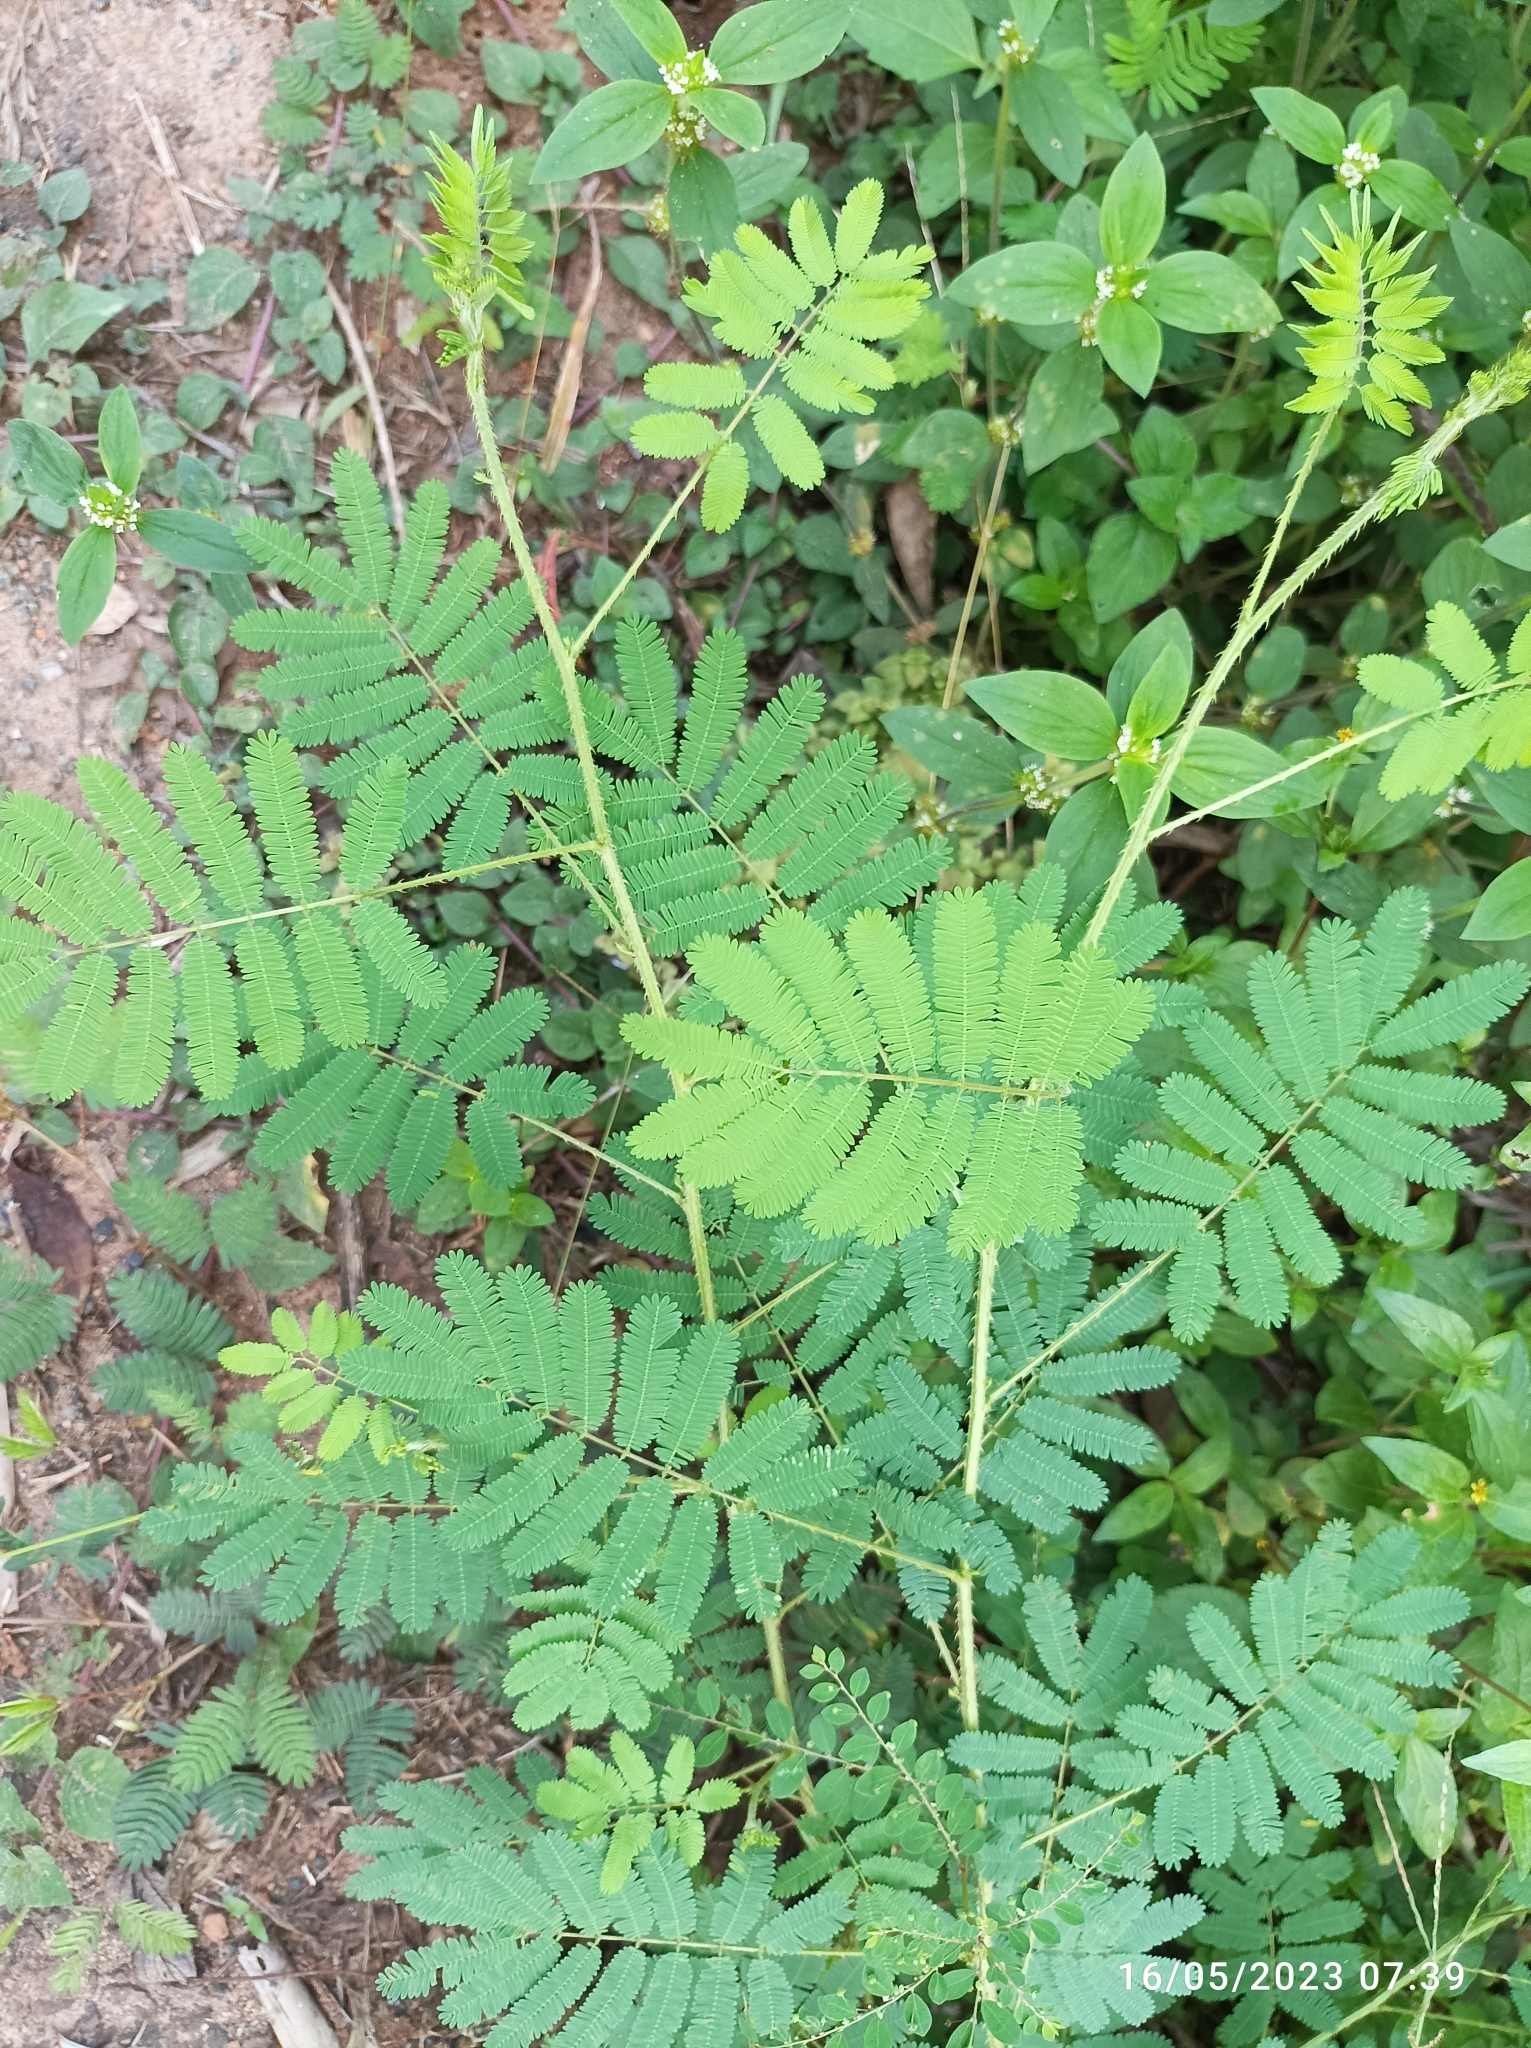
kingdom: Plantae
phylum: Tracheophyta
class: Magnoliopsida
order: Fabales
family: Fabaceae
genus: Mimosa
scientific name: Mimosa diplotricha
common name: Giant sensitive-plant
